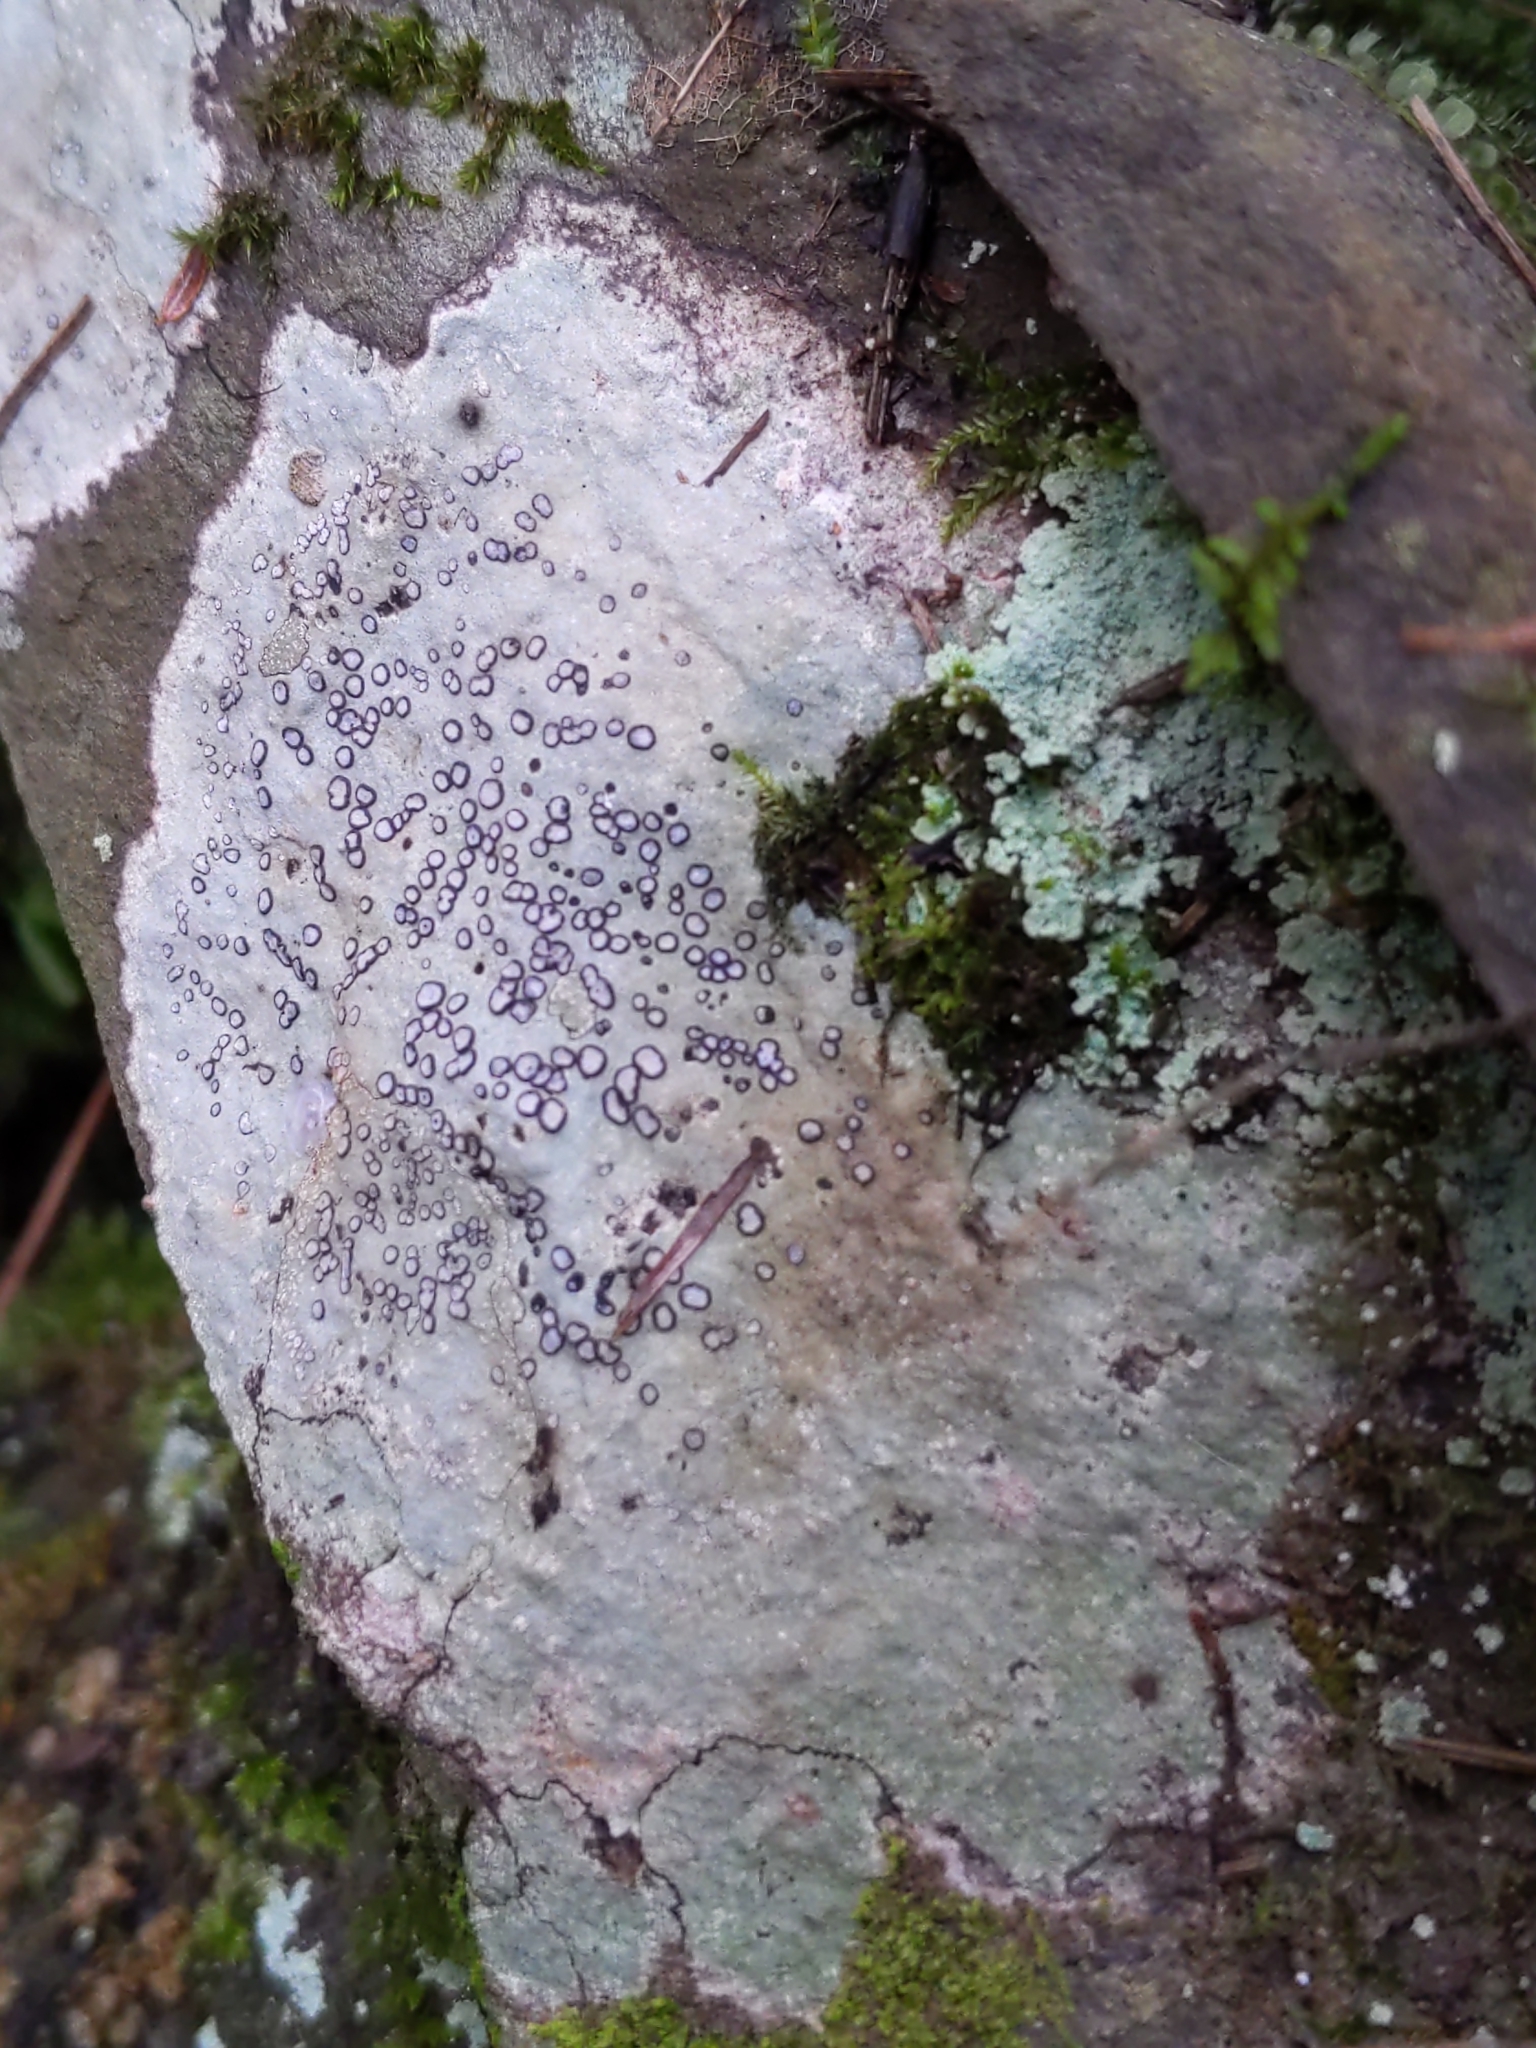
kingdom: Fungi
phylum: Ascomycota
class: Lecanoromycetes
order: Lecideales
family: Lecideaceae
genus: Porpidia
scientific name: Porpidia albocaerulescens
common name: Smokey-eyed boulder lichen
